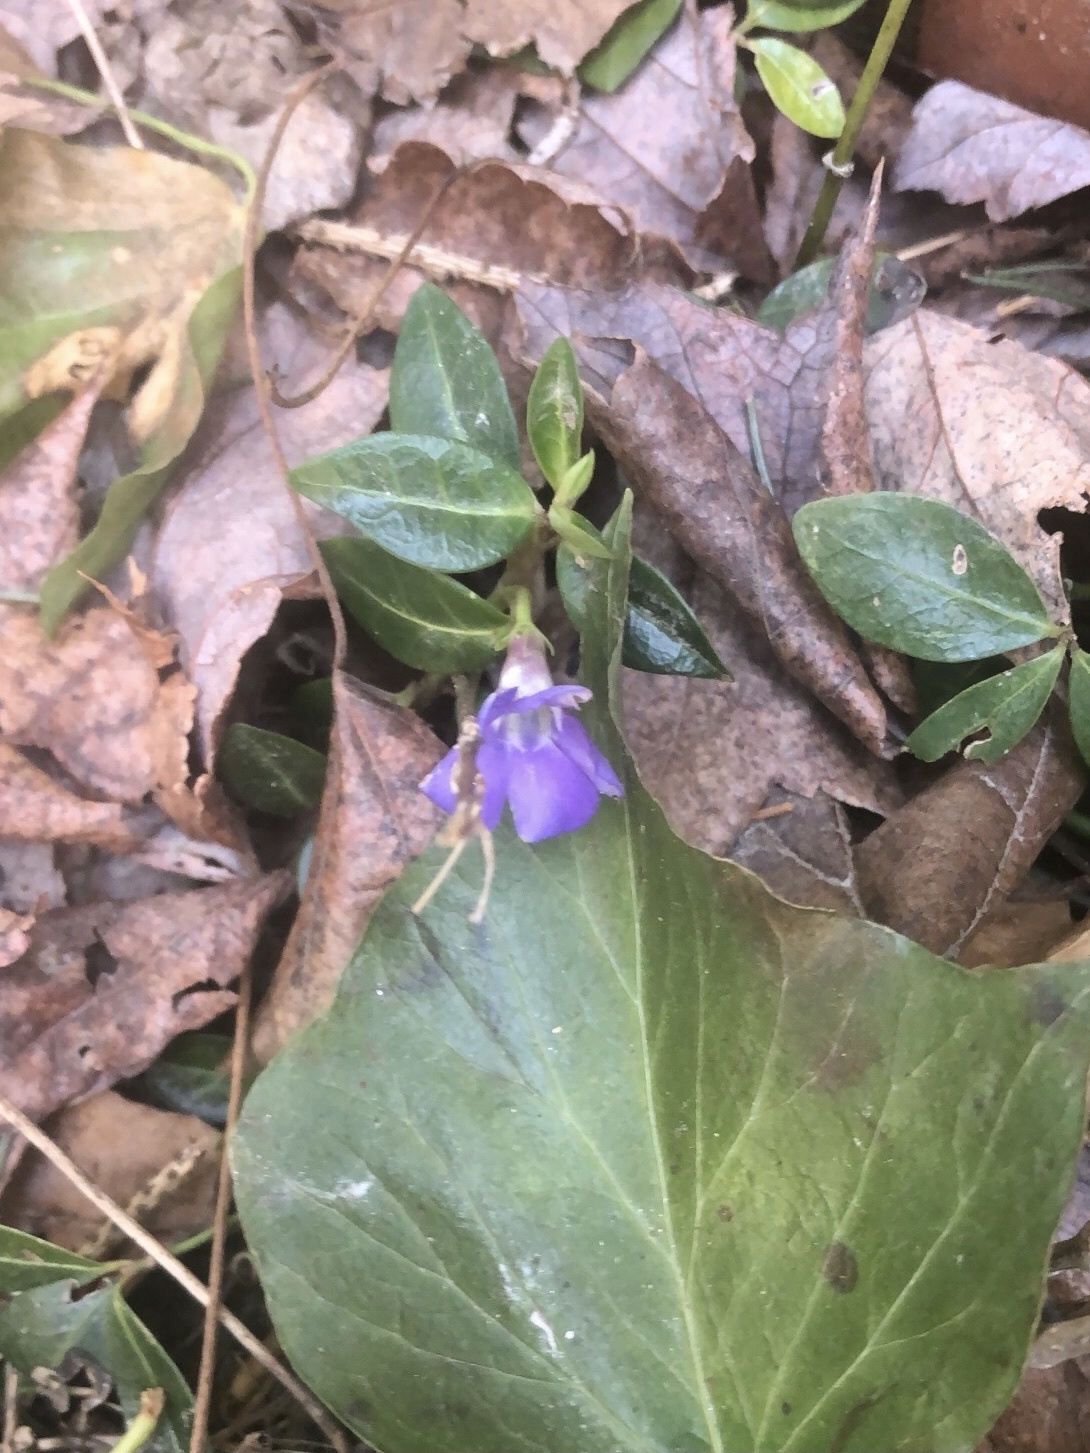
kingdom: Plantae
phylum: Tracheophyta
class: Magnoliopsida
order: Gentianales
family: Apocynaceae
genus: Vinca
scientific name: Vinca minor
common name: Lesser periwinkle
